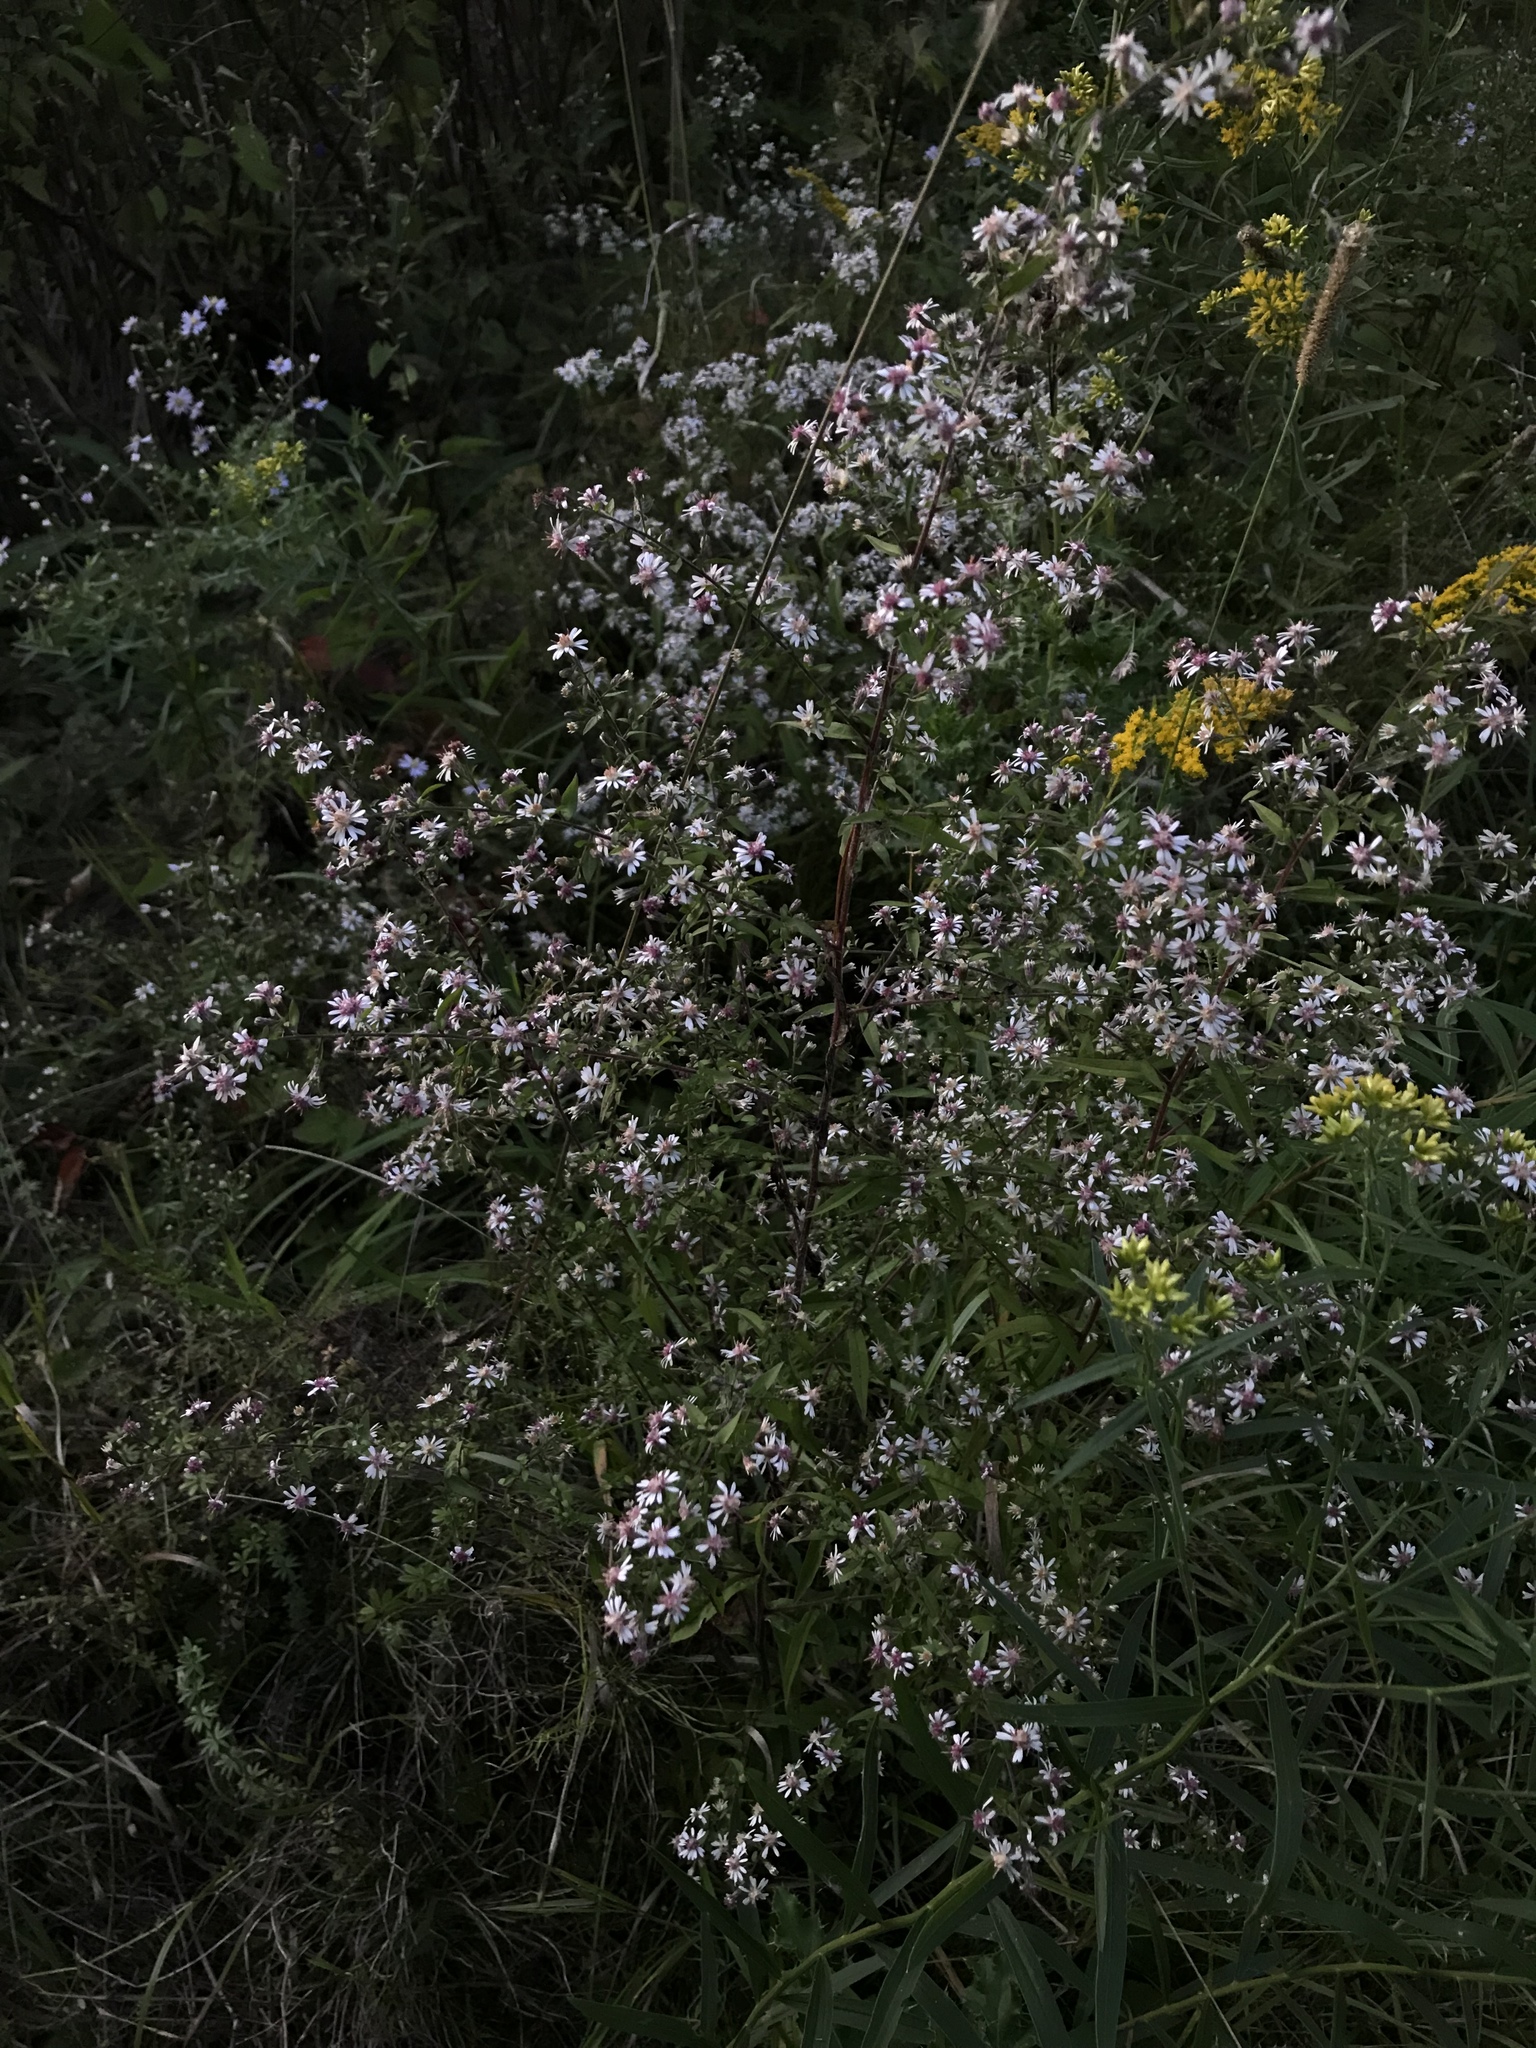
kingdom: Plantae
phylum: Tracheophyta
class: Magnoliopsida
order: Asterales
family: Asteraceae
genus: Symphyotrichum
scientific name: Symphyotrichum lateriflorum
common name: Calico aster
